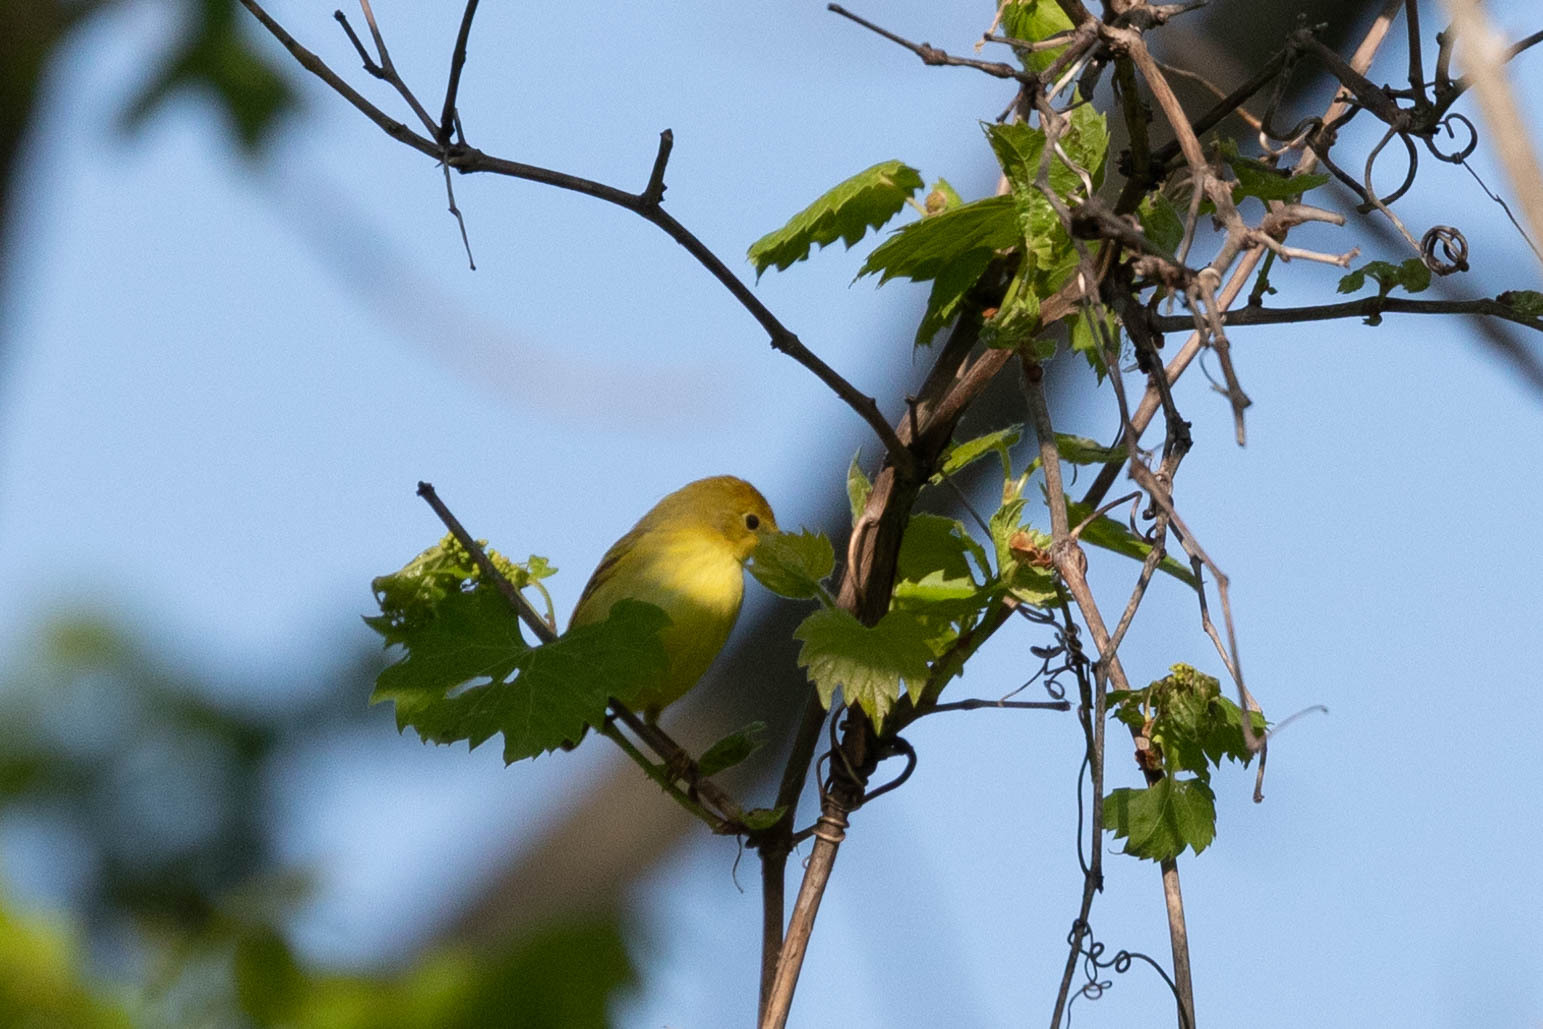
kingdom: Animalia
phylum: Chordata
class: Aves
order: Passeriformes
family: Parulidae
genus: Setophaga
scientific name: Setophaga petechia
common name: Yellow warbler
